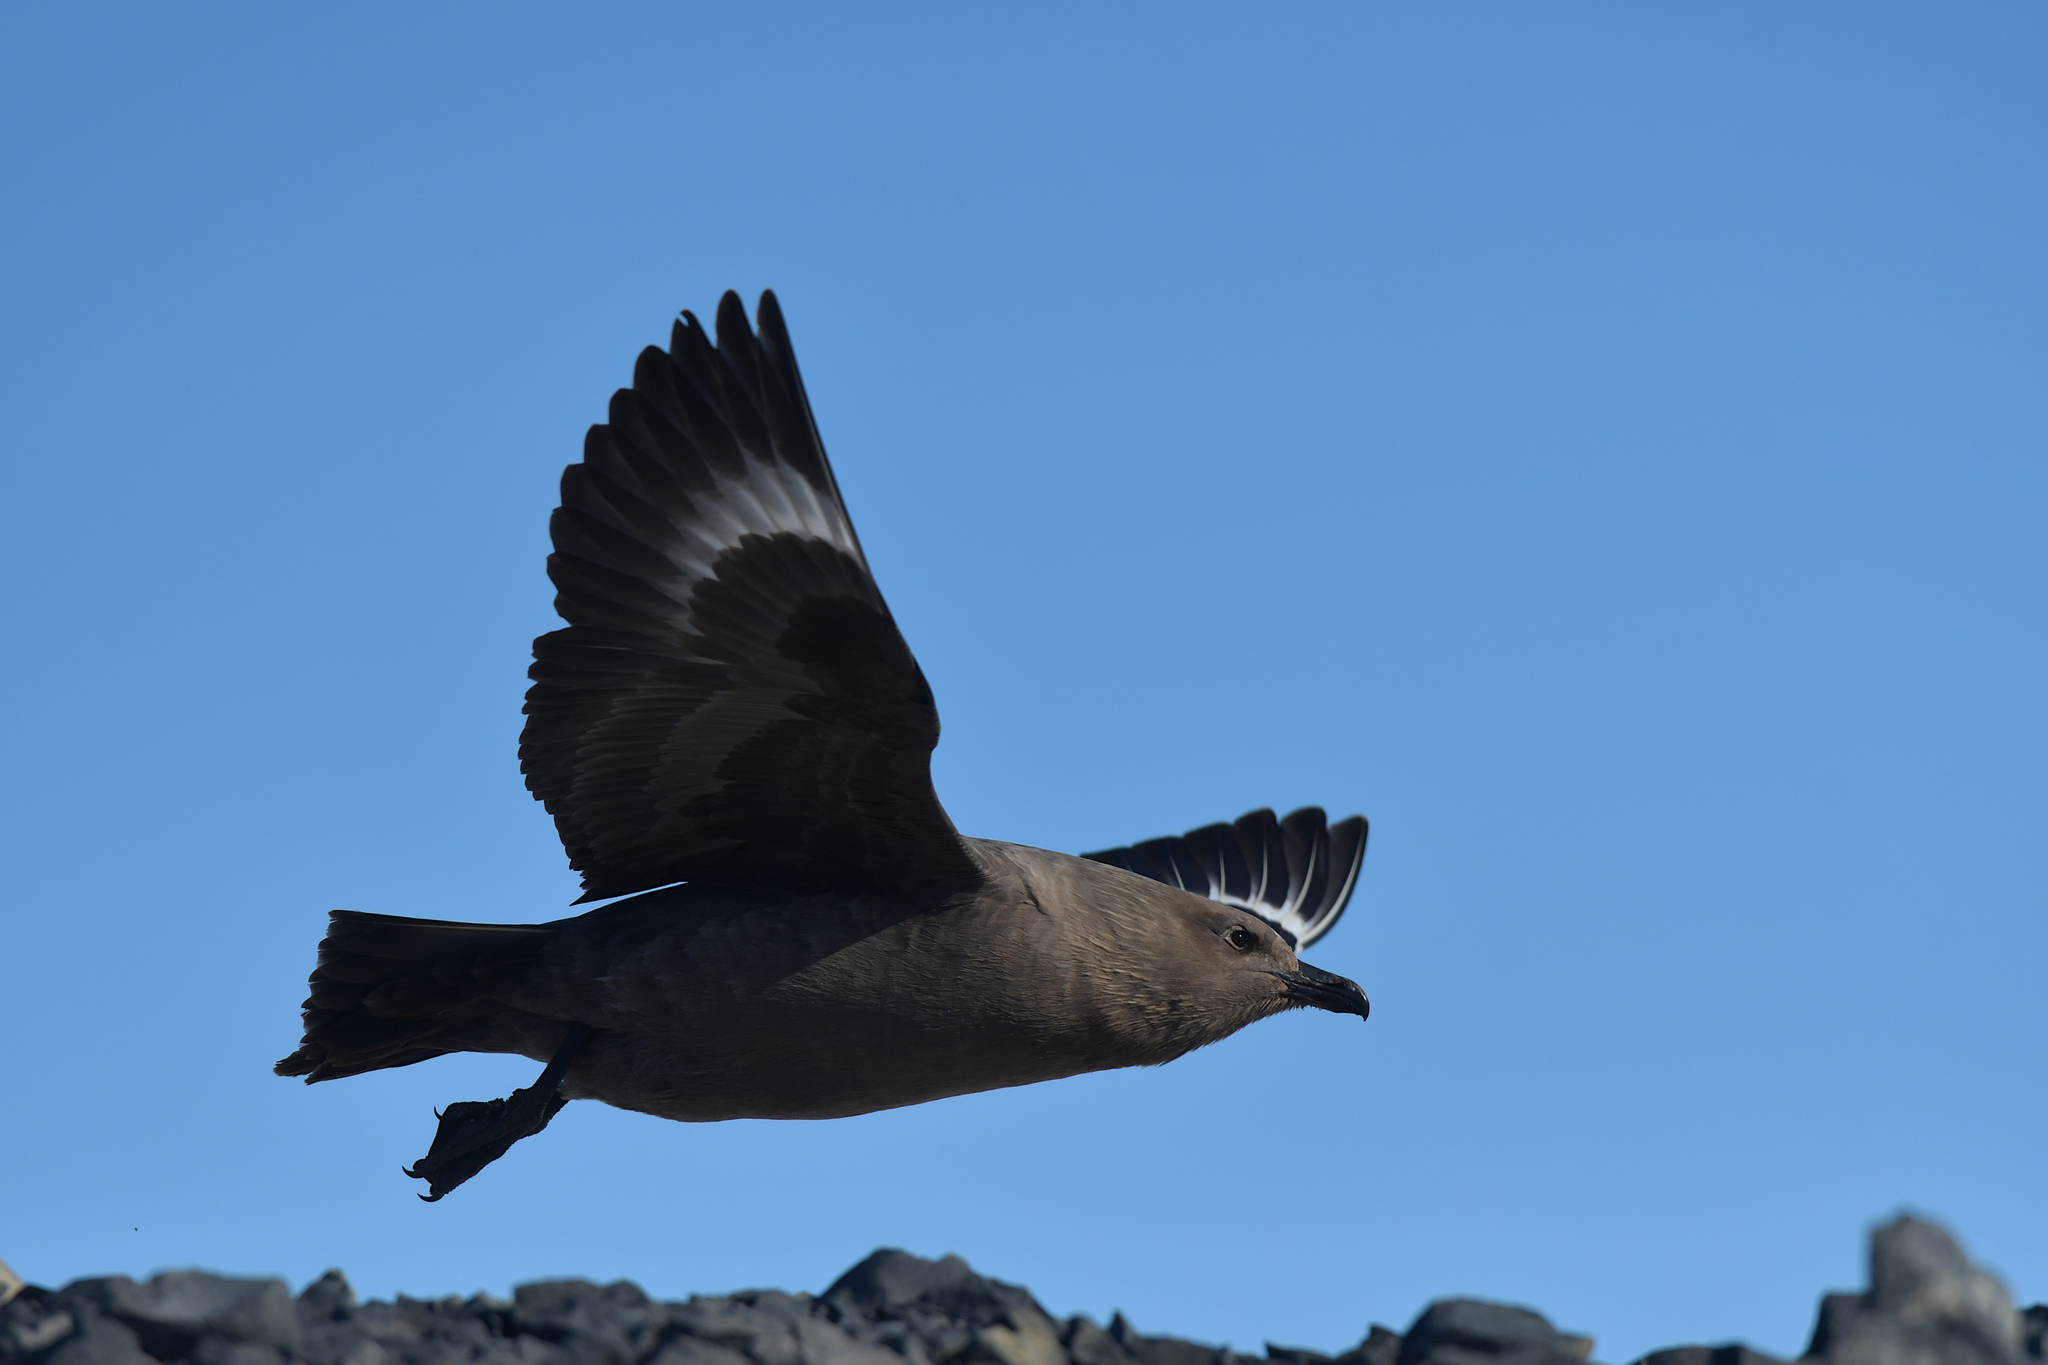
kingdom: Animalia
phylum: Chordata
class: Aves
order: Charadriiformes
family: Stercorariidae
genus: Stercorarius
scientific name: Stercorarius maccormicki
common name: South polar skua
